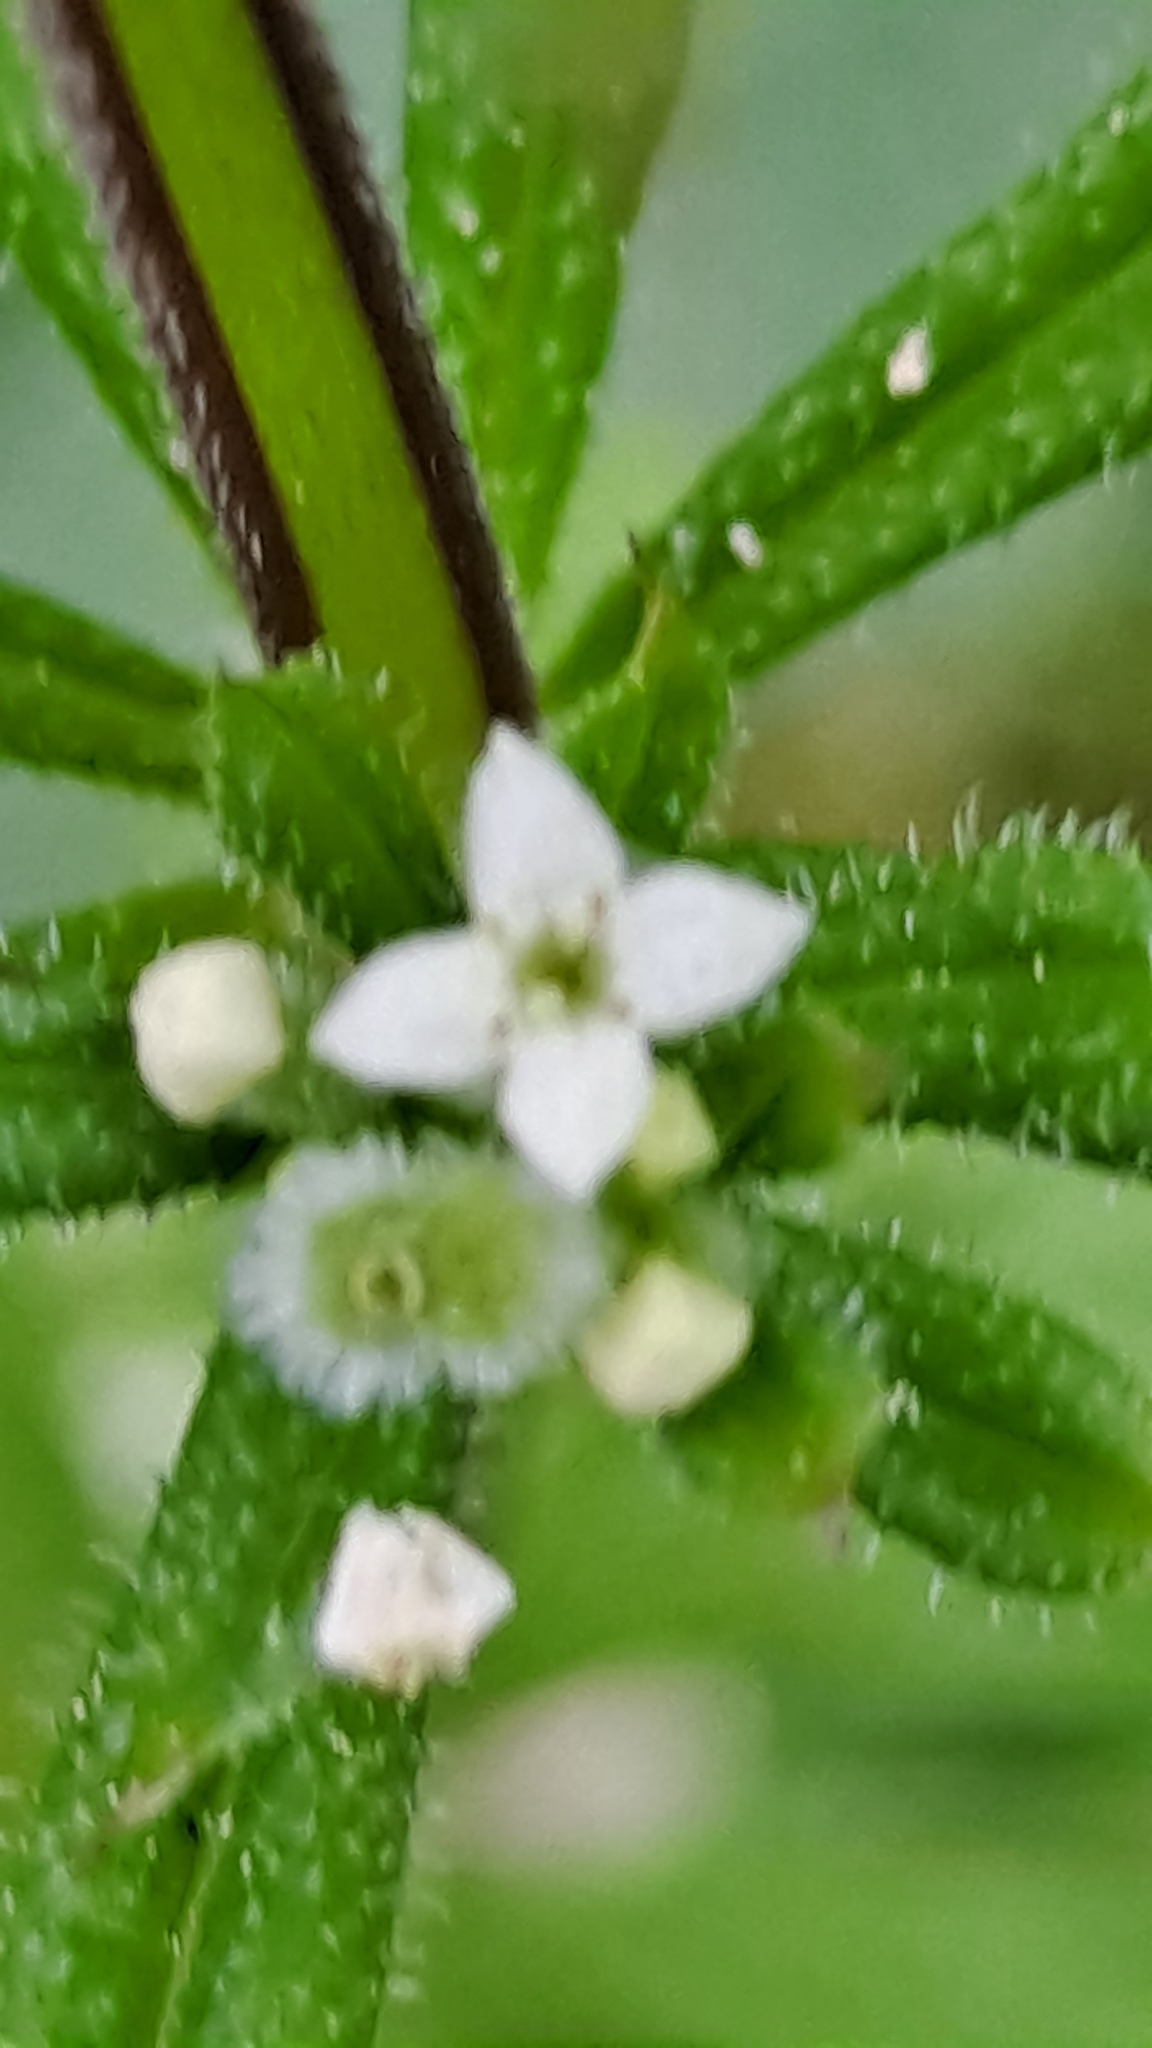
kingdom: Plantae
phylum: Tracheophyta
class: Magnoliopsida
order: Gentianales
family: Rubiaceae
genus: Galium
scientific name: Galium aparine
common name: Cleavers
